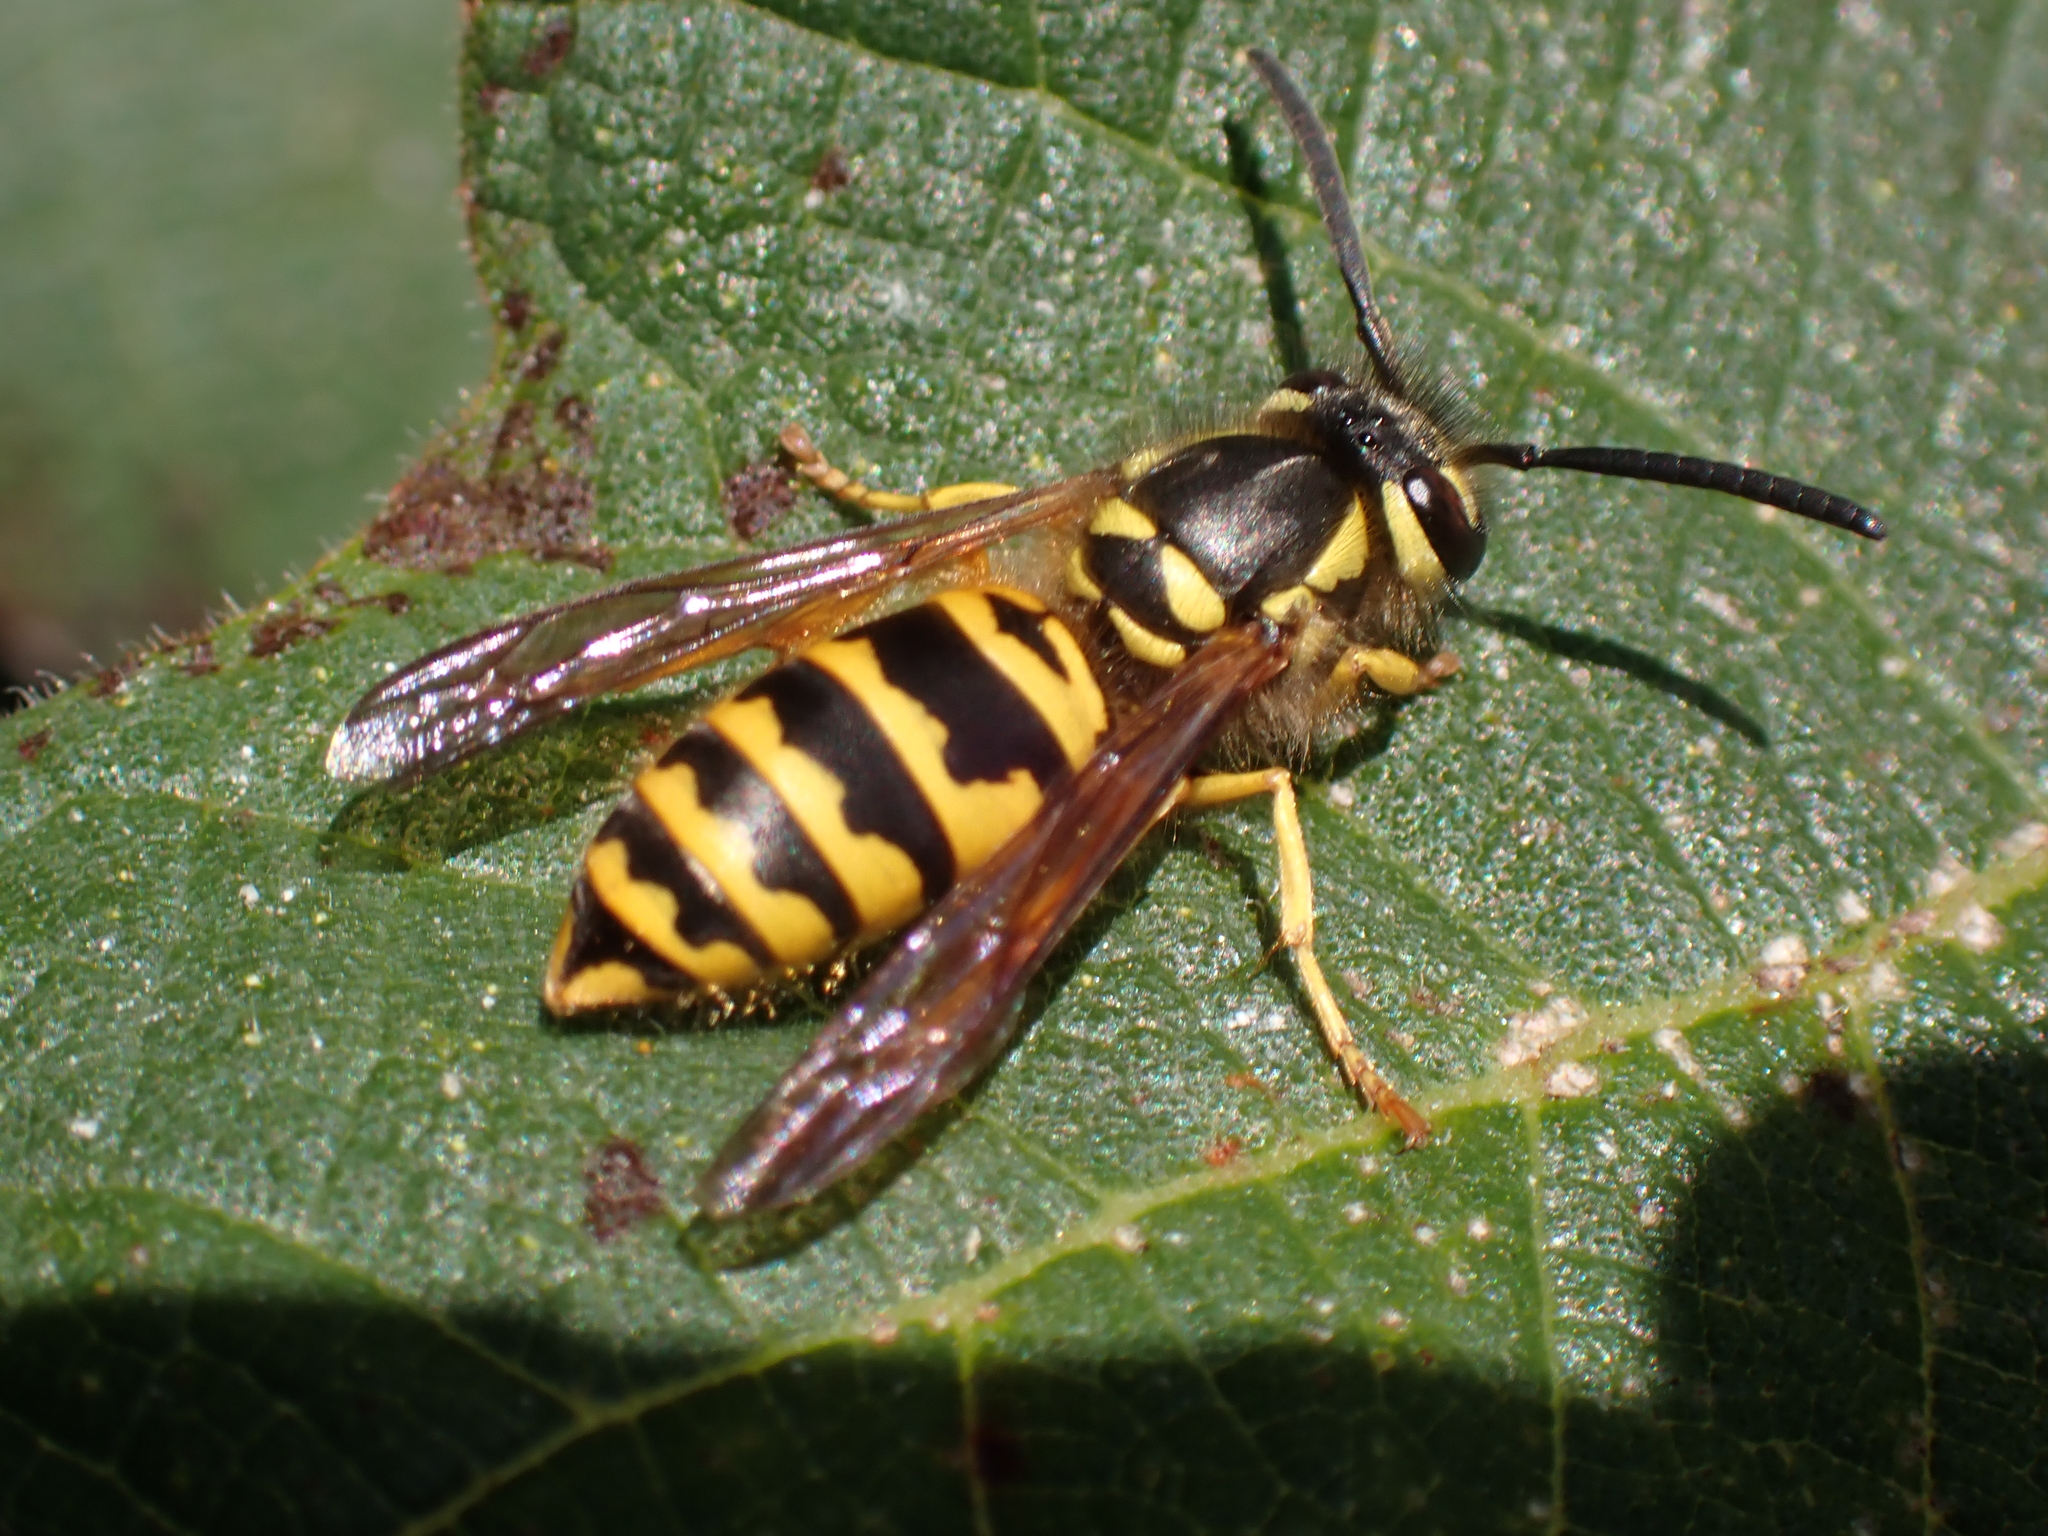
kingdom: Animalia
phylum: Arthropoda
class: Insecta
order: Hymenoptera
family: Vespidae
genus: Vespula
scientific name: Vespula maculifrons
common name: Eastern yellowjacket
